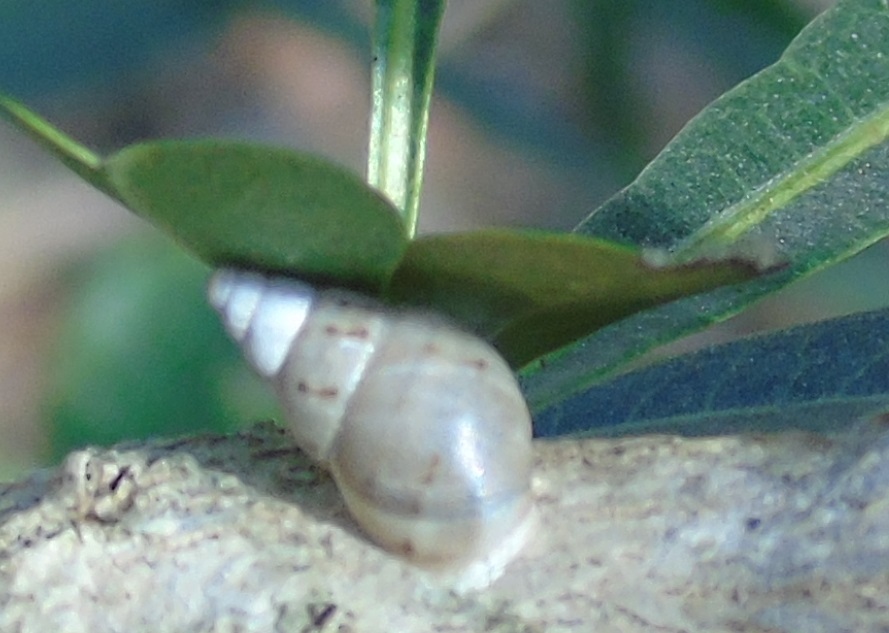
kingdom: Animalia
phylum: Mollusca
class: Gastropoda
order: Stylommatophora
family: Bulimulidae
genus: Rabdotus
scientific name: Rabdotus
